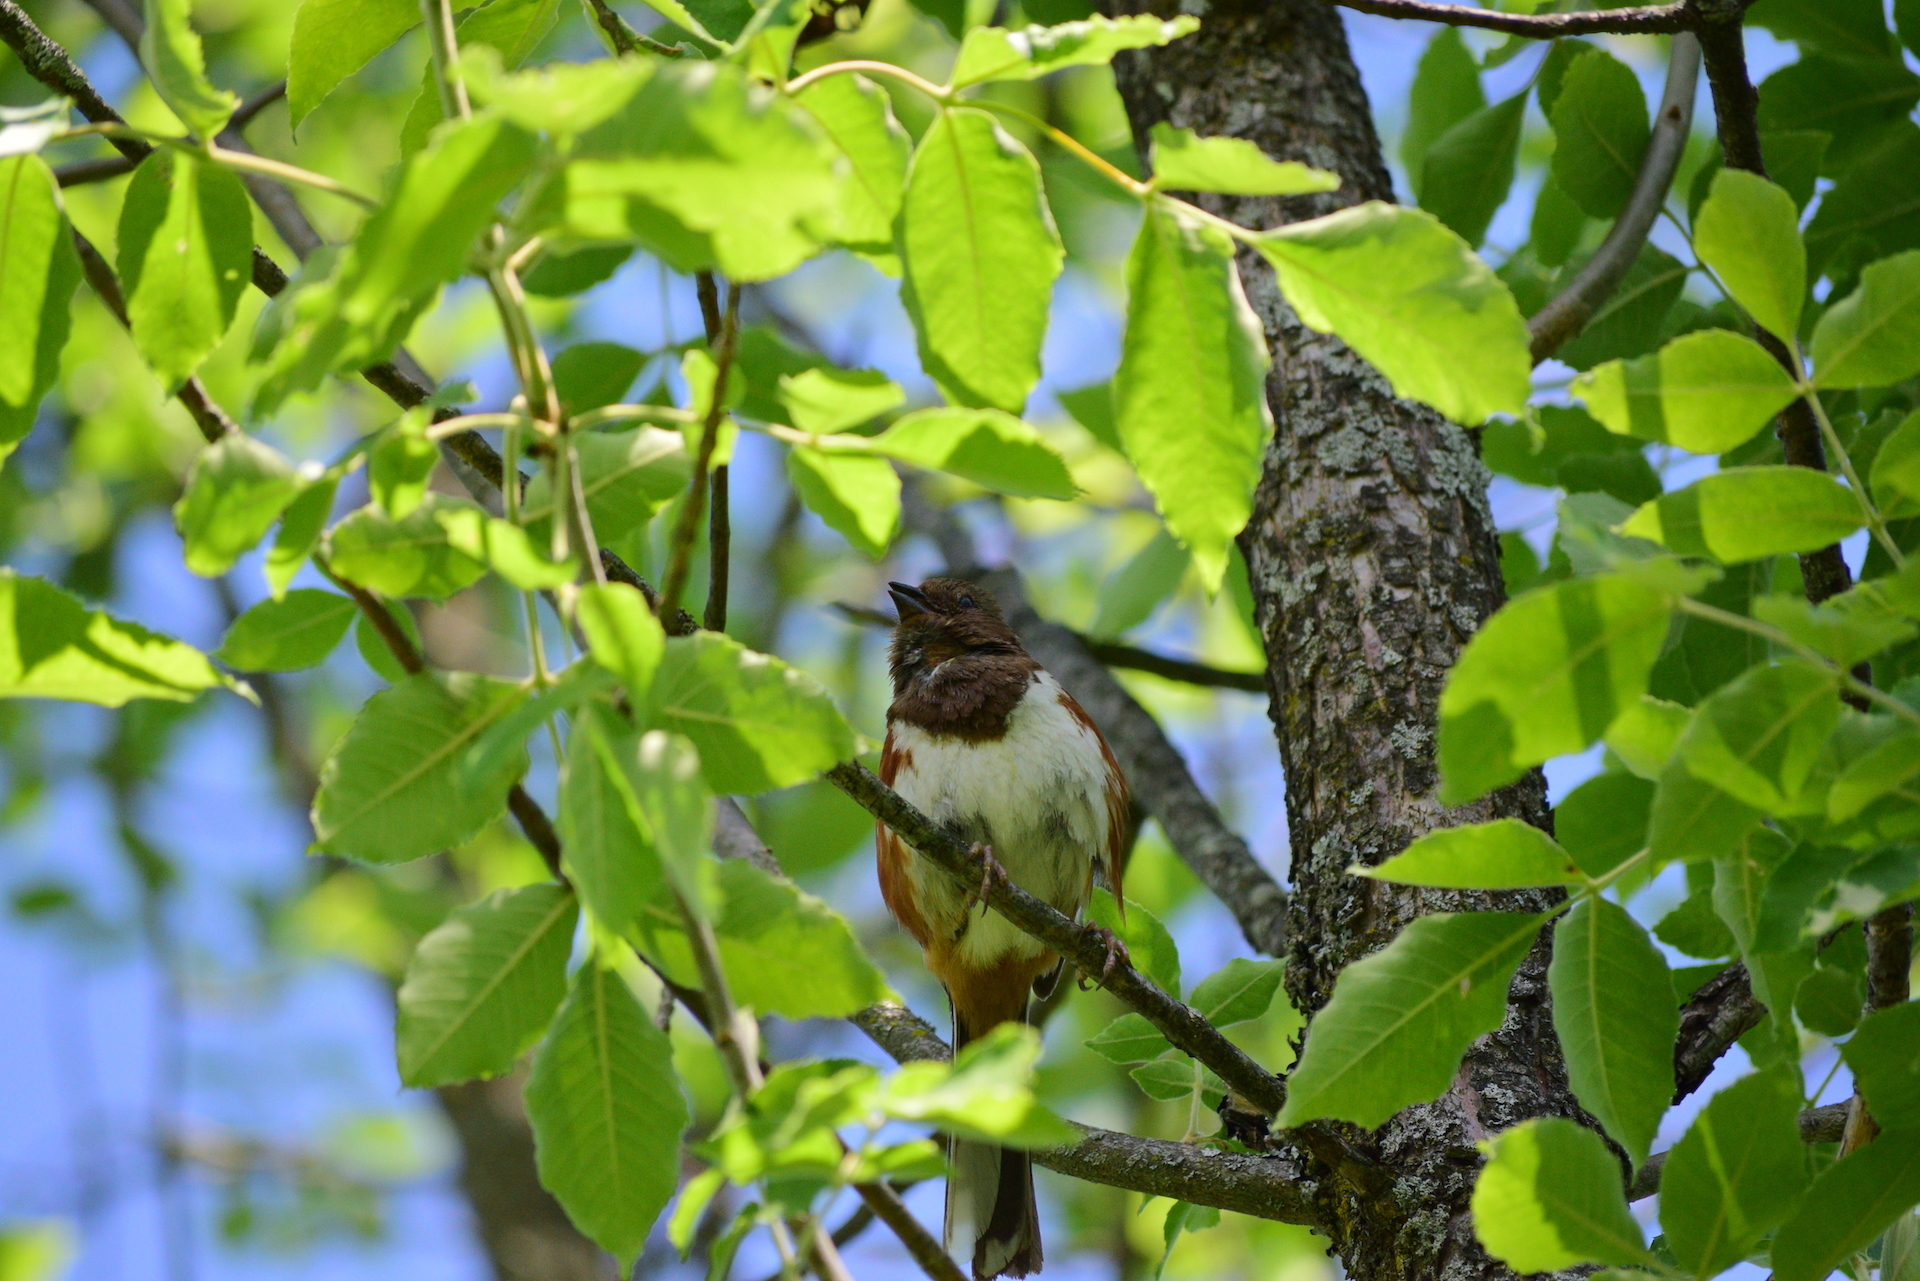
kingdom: Animalia
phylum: Chordata
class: Aves
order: Passeriformes
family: Passerellidae
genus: Pipilo
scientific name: Pipilo erythrophthalmus
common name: Eastern towhee
